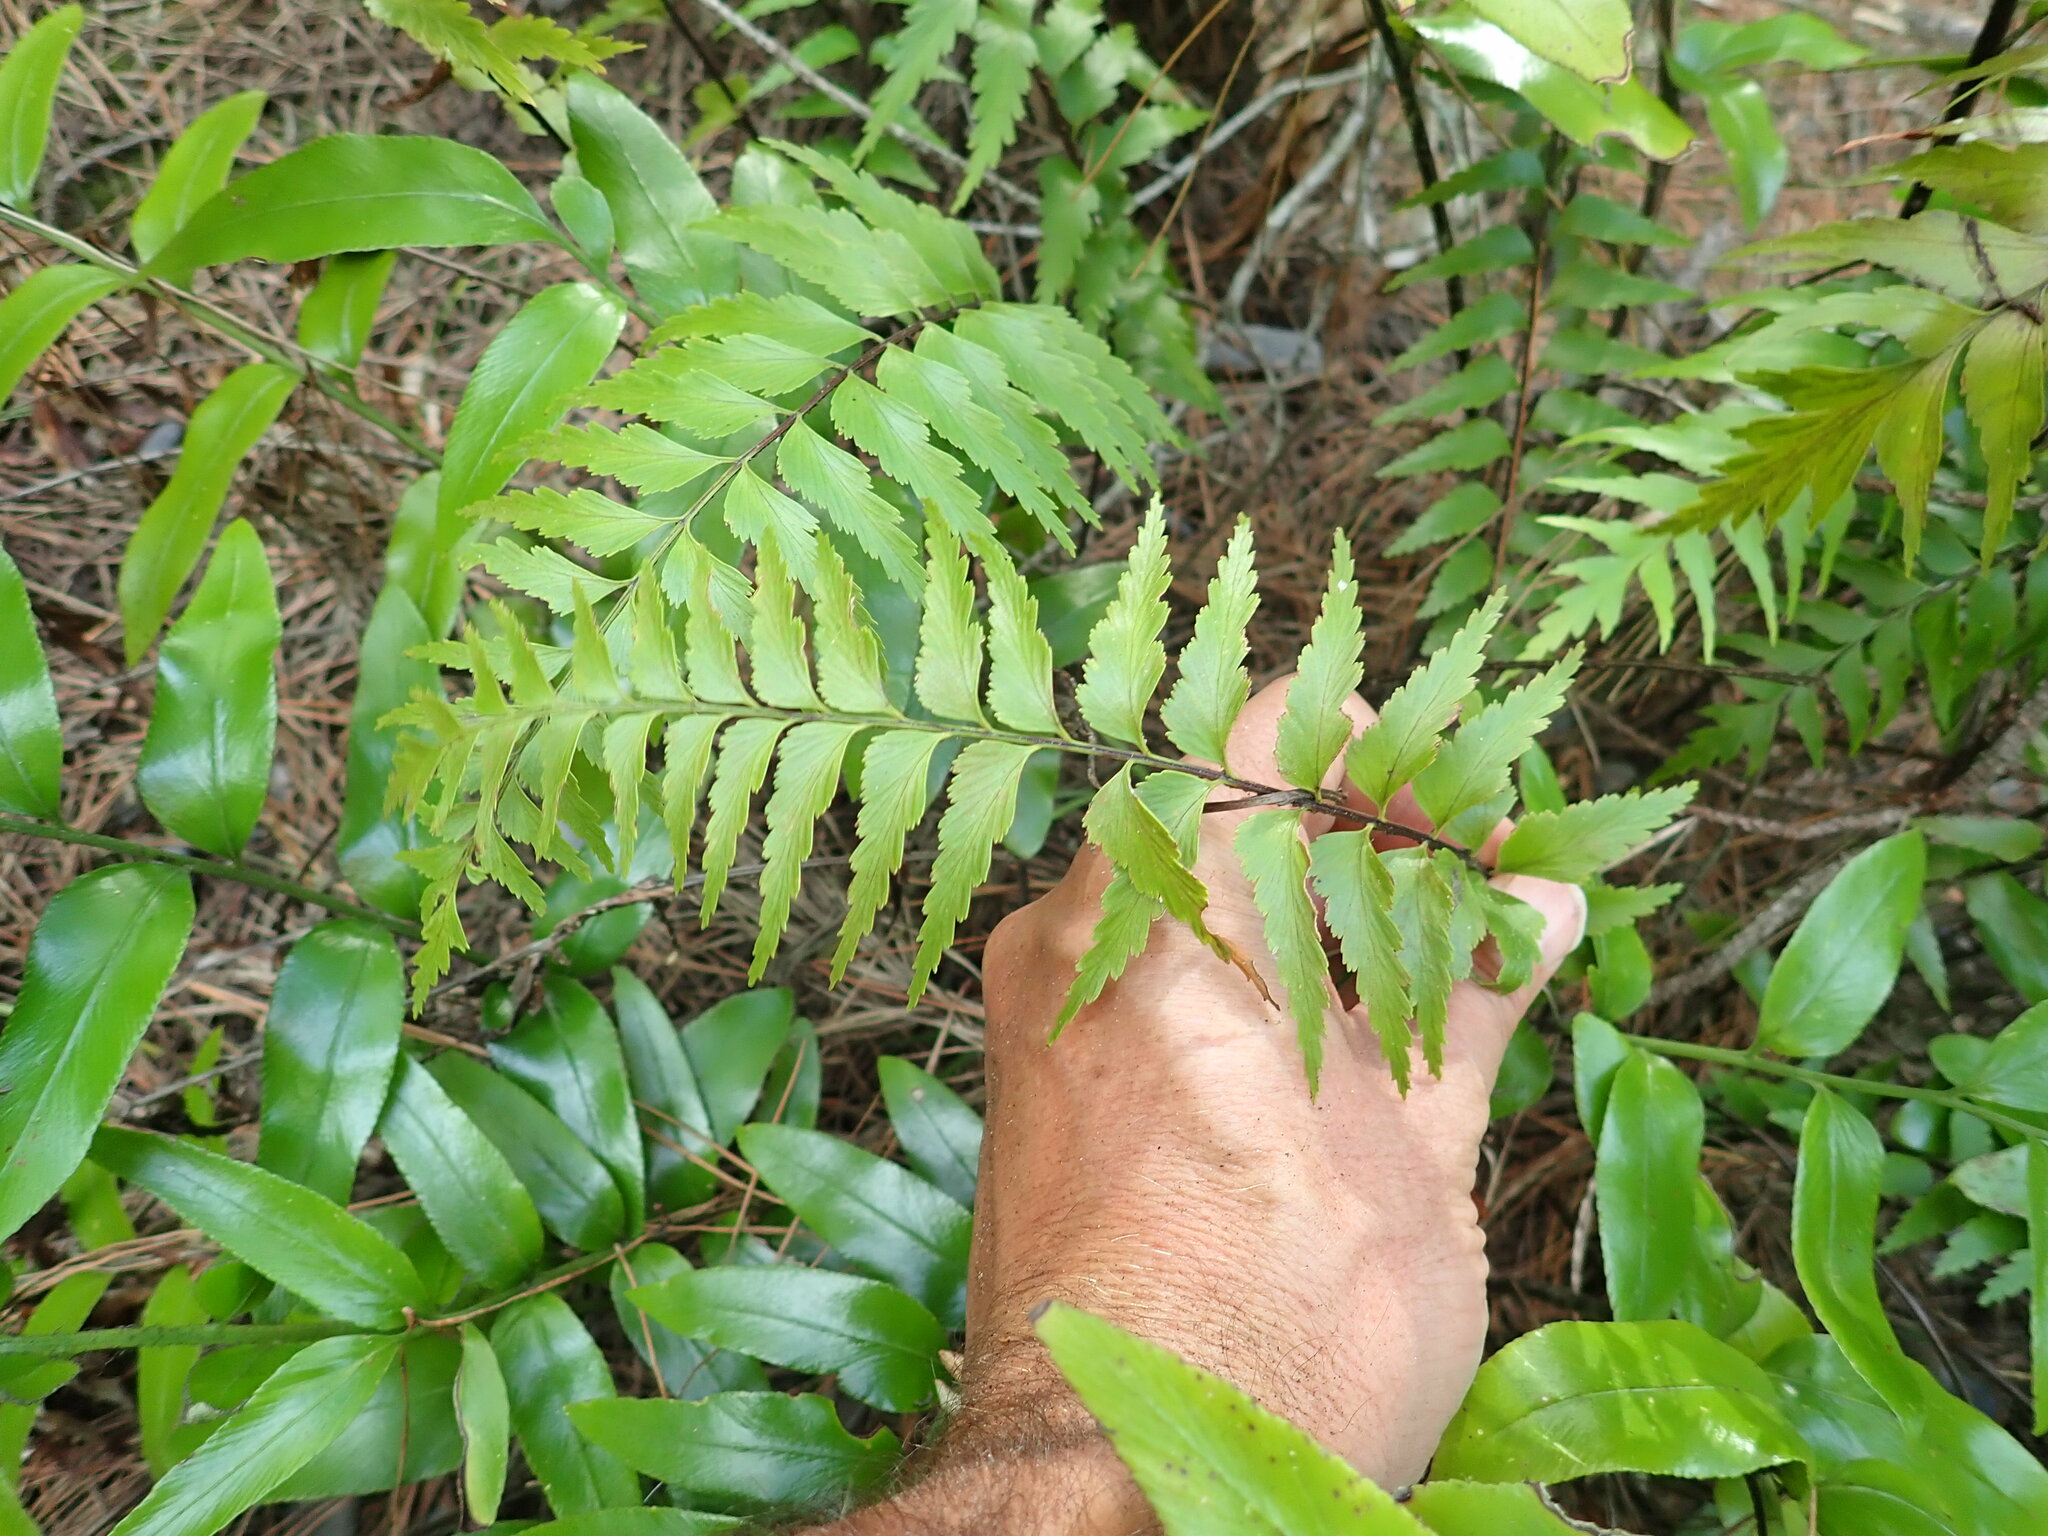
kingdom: Plantae
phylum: Tracheophyta
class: Polypodiopsida
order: Polypodiales
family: Aspleniaceae
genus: Asplenium
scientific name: Asplenium polyodon
